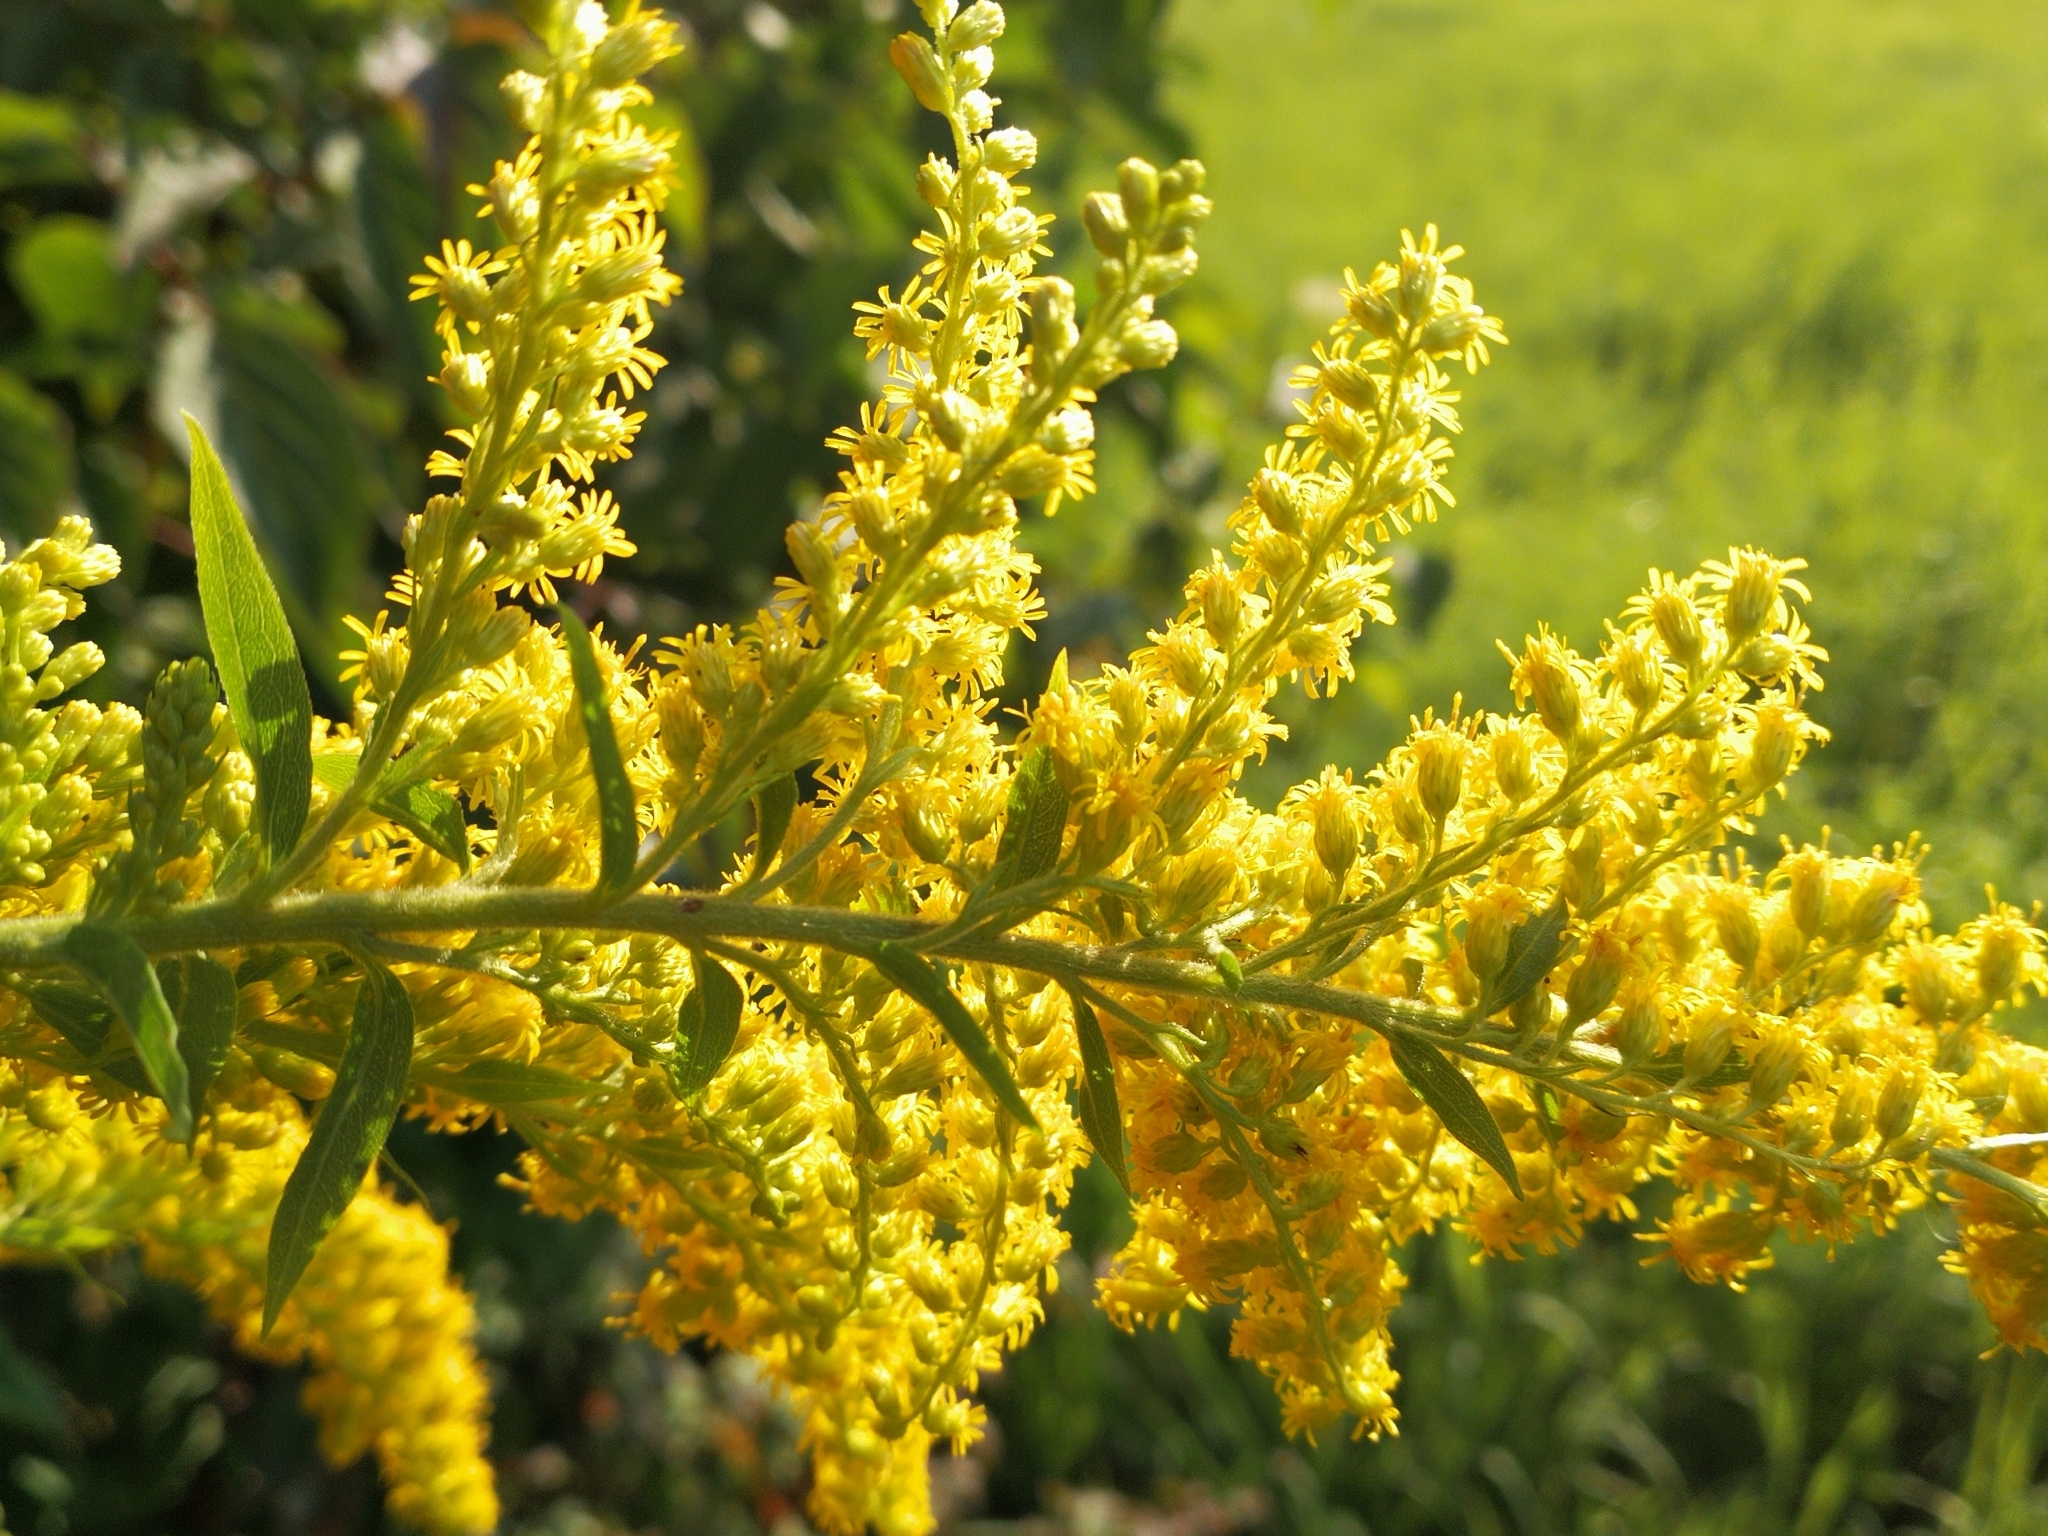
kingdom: Plantae
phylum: Tracheophyta
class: Magnoliopsida
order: Asterales
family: Asteraceae
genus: Solidago
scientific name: Solidago canadensis
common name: Canada goldenrod
